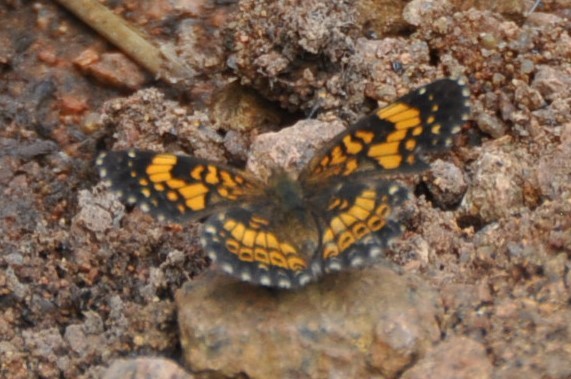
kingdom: Animalia
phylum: Arthropoda
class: Insecta
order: Lepidoptera
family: Nymphalidae
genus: Chlosyne
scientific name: Chlosyne gorgone
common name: Gorgone checkerspot
